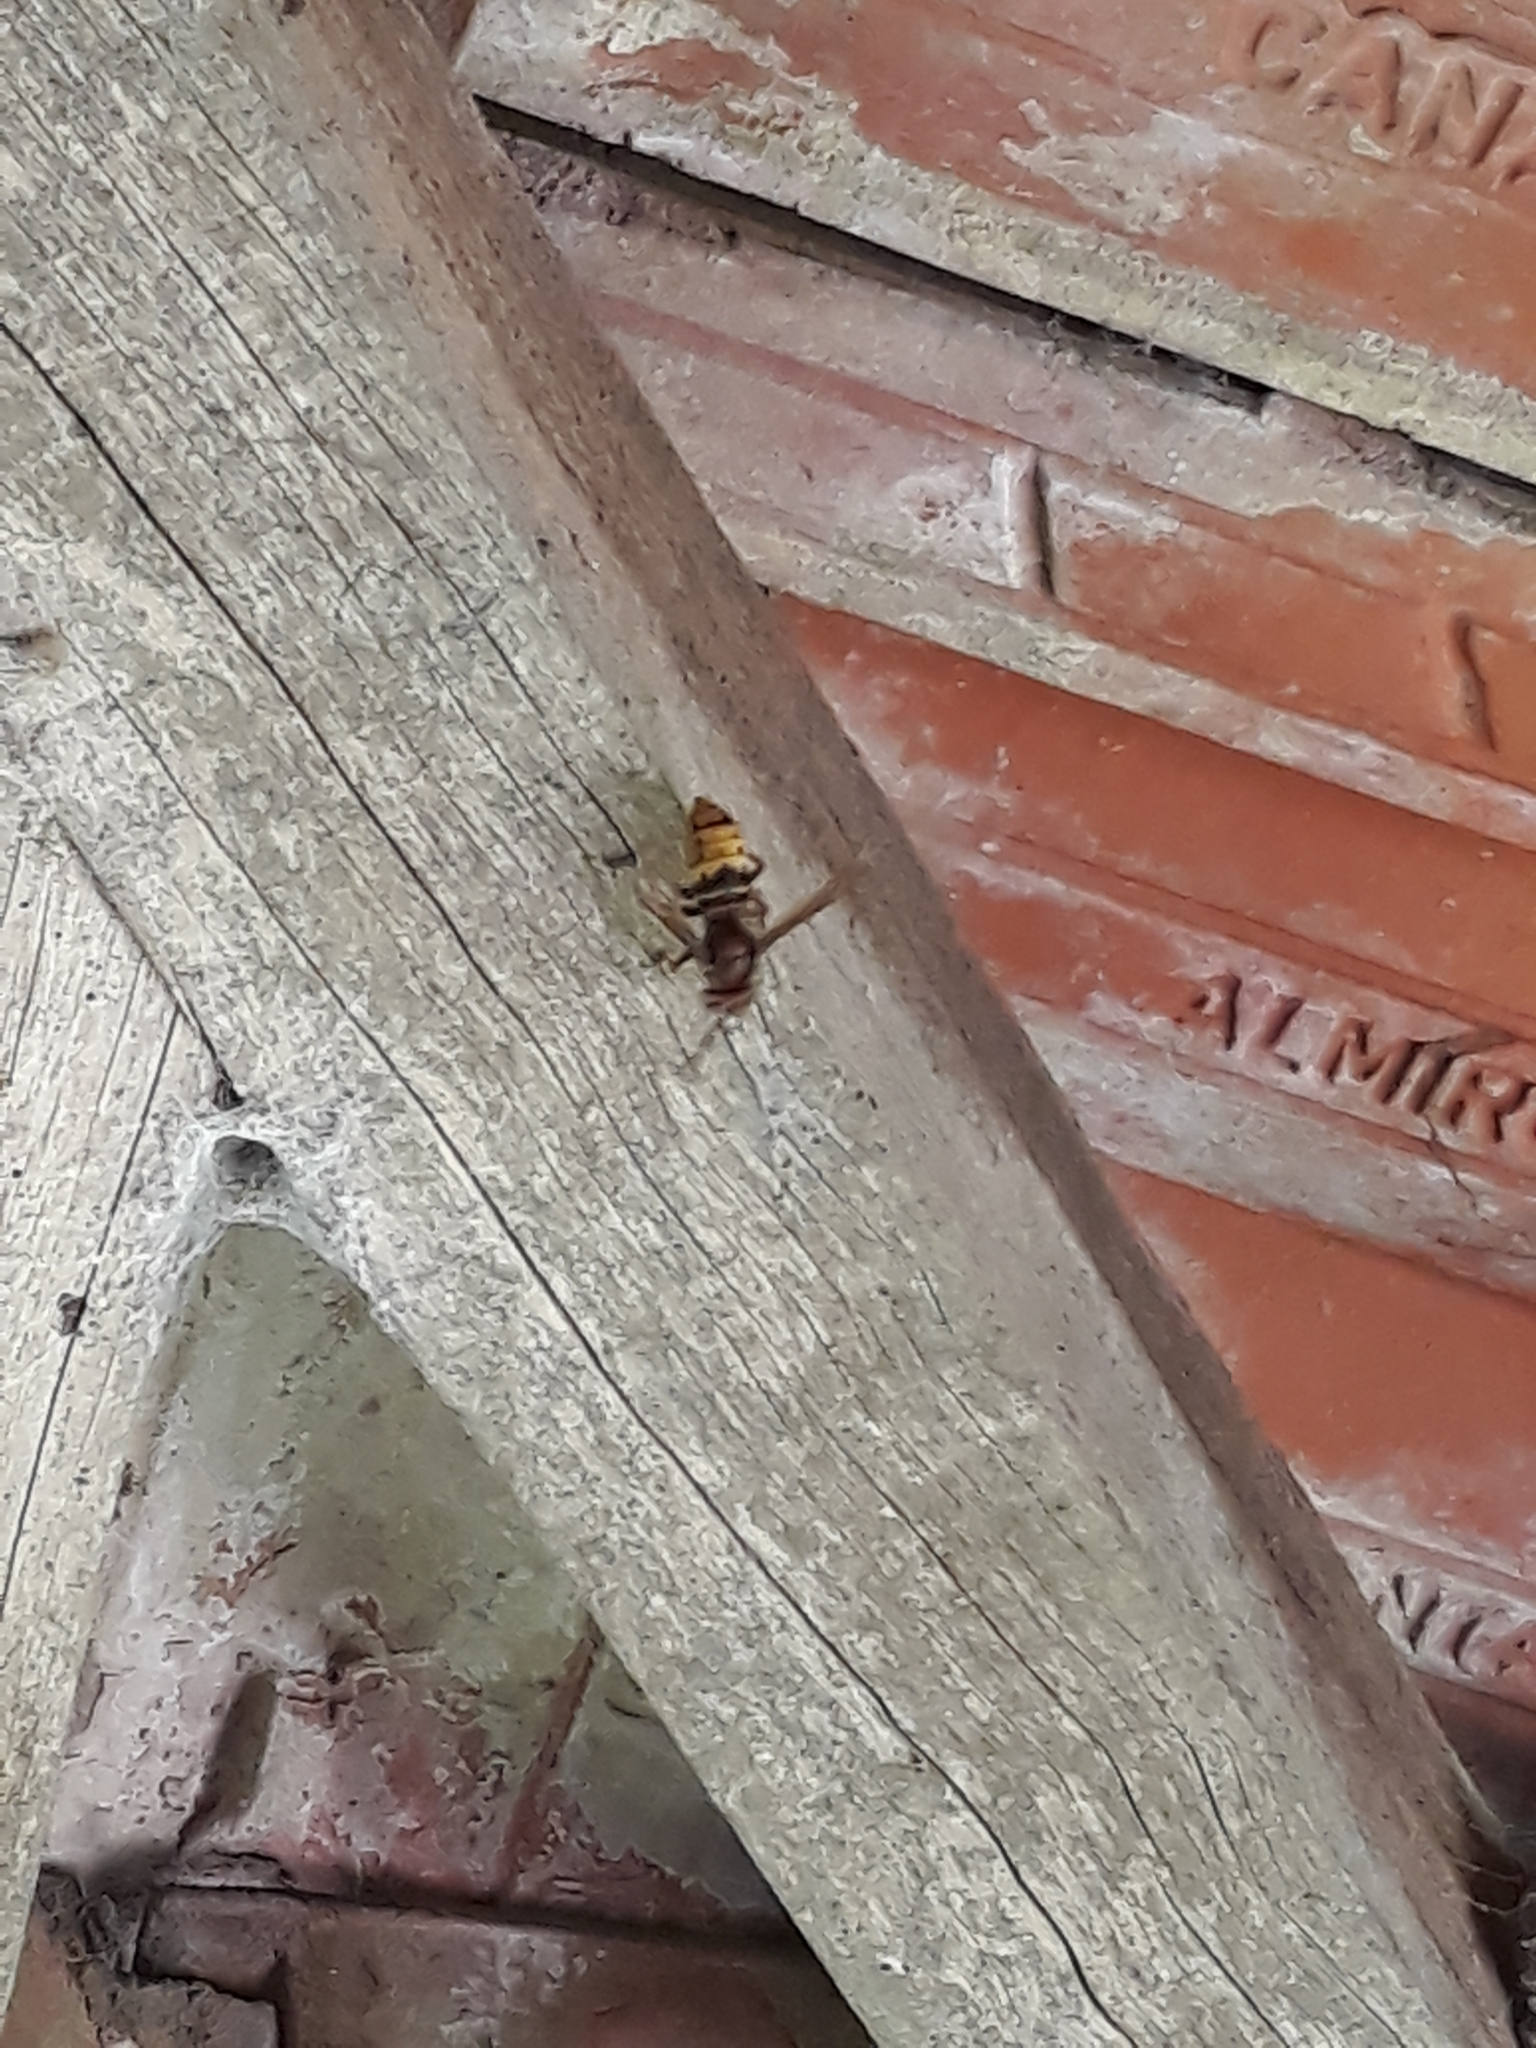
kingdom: Animalia
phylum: Arthropoda
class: Insecta
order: Hymenoptera
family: Vespidae
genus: Vespa
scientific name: Vespa crabro
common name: Hornet
